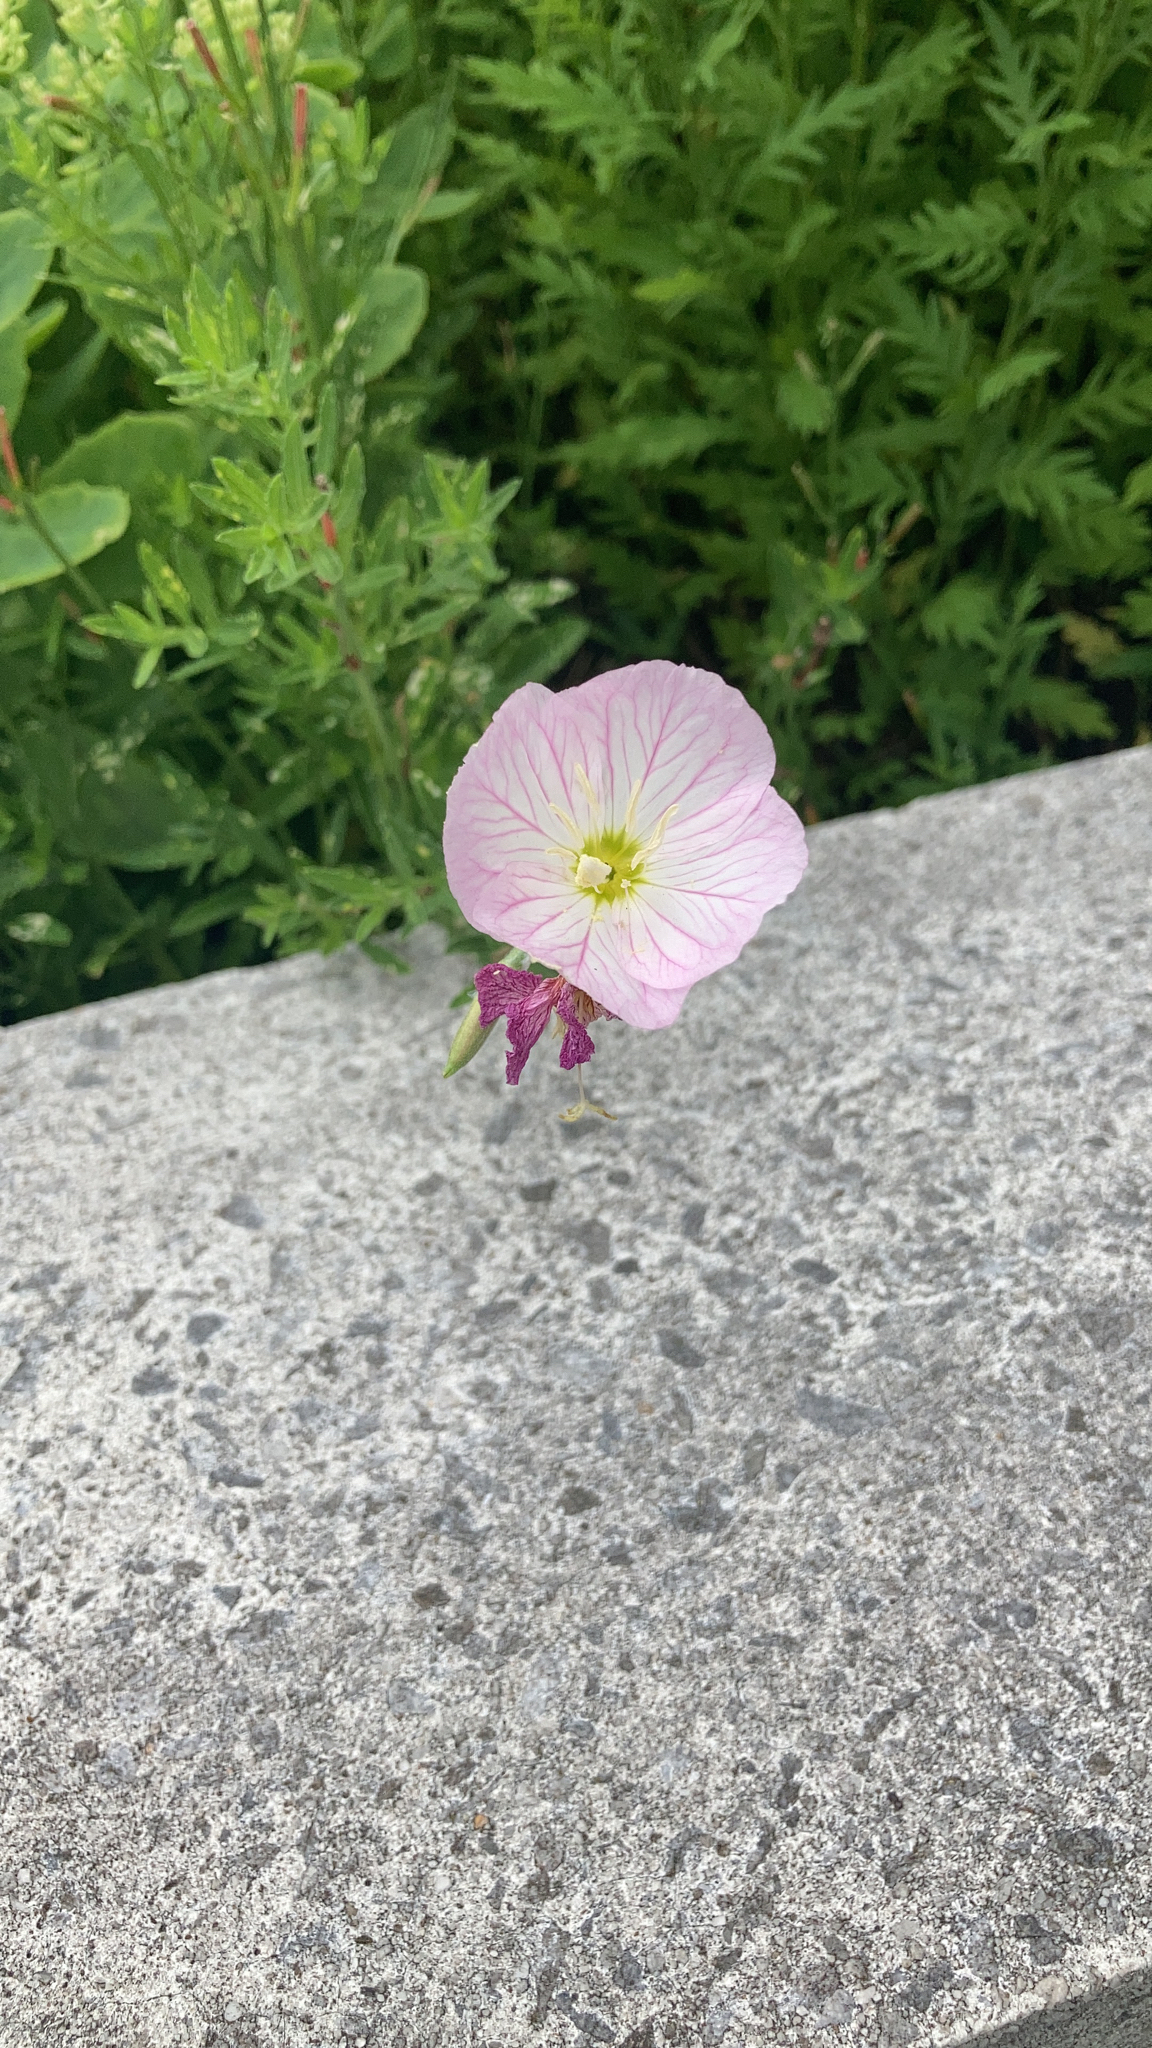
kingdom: Plantae
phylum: Tracheophyta
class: Magnoliopsida
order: Myrtales
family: Onagraceae
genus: Oenothera
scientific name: Oenothera speciosa
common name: White evening-primrose
